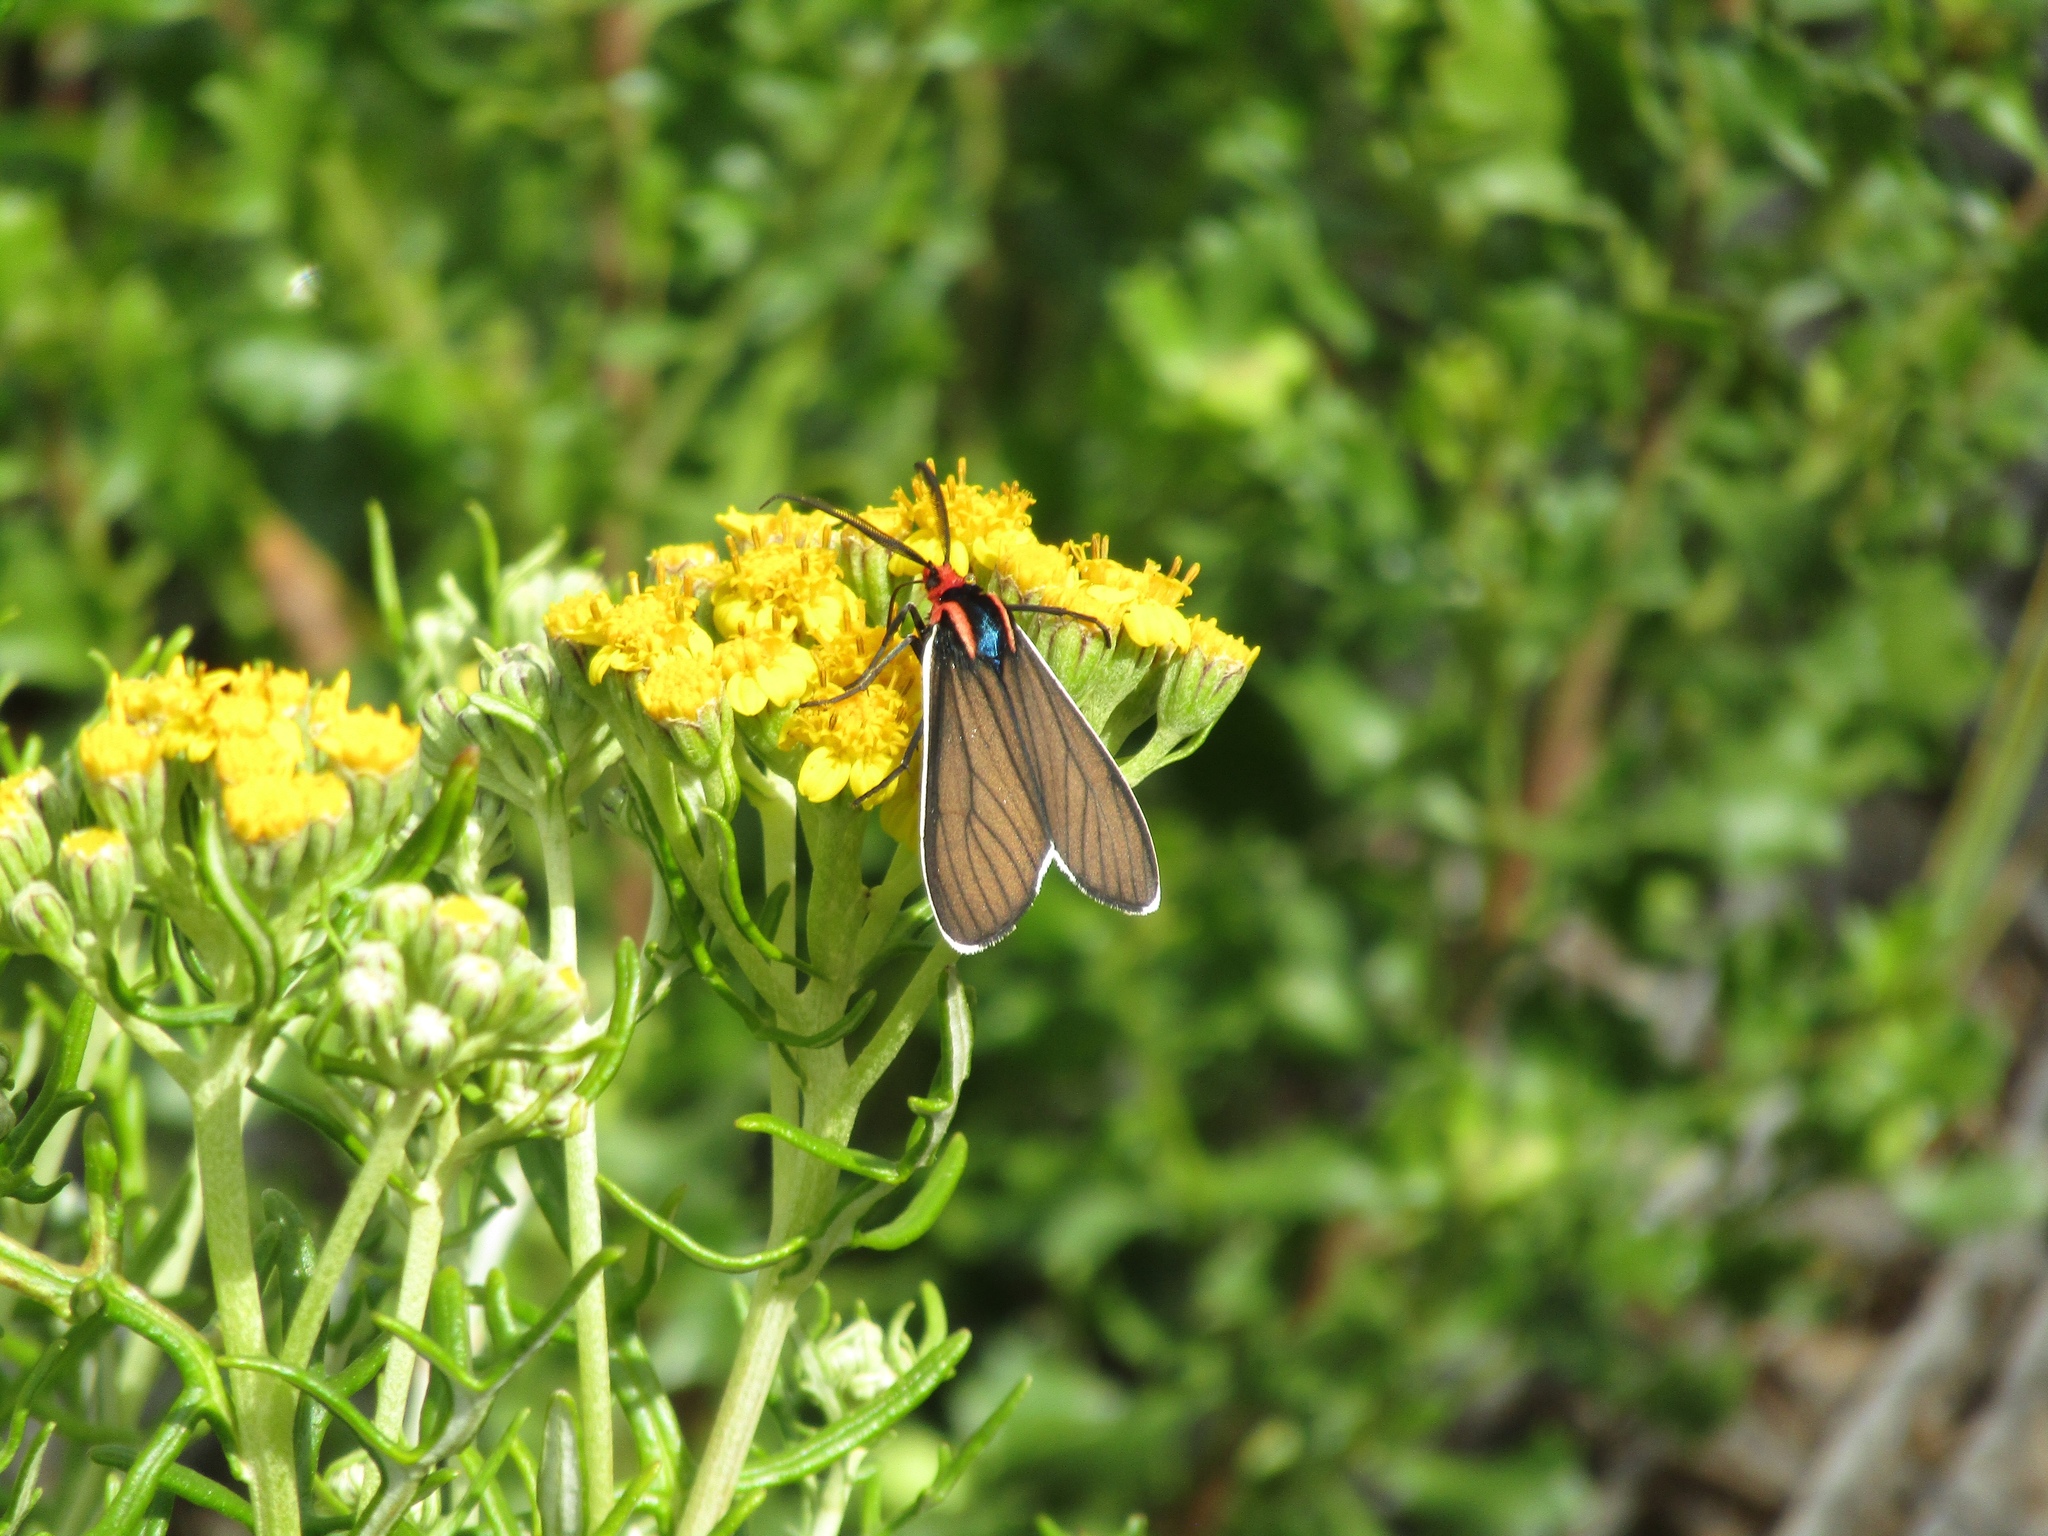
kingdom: Animalia
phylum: Arthropoda
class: Insecta
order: Lepidoptera
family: Erebidae
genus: Ctenucha
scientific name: Ctenucha brunnea
